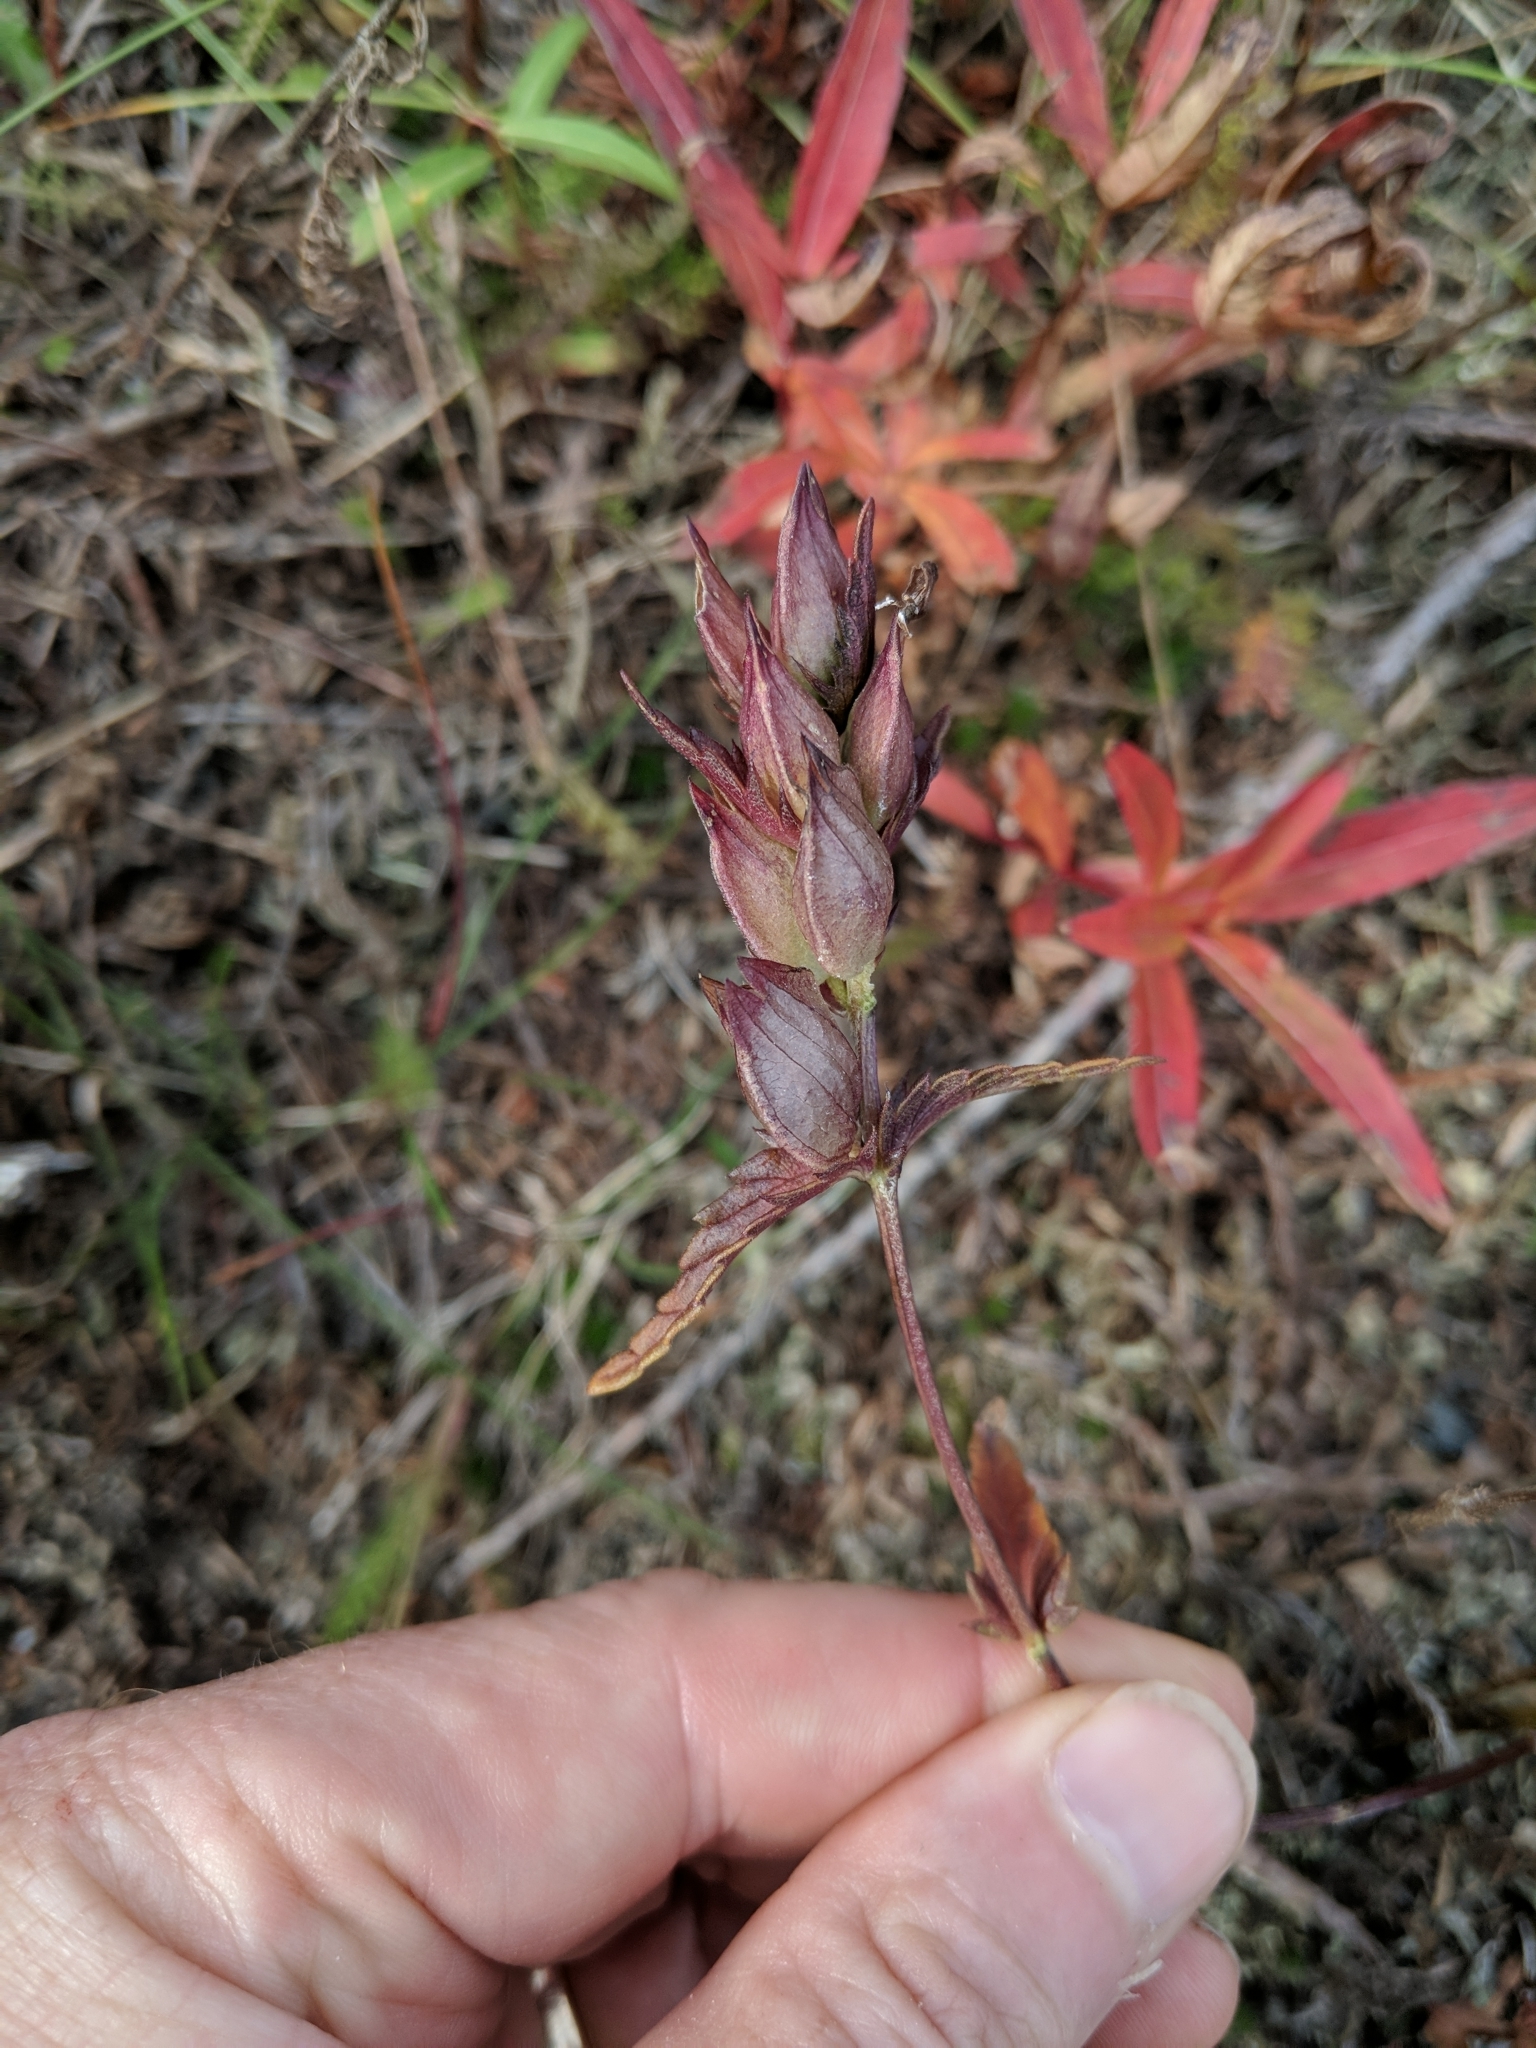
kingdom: Plantae
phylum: Tracheophyta
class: Magnoliopsida
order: Lamiales
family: Orobanchaceae
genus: Rhinanthus
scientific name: Rhinanthus minor
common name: Yellow-rattle
